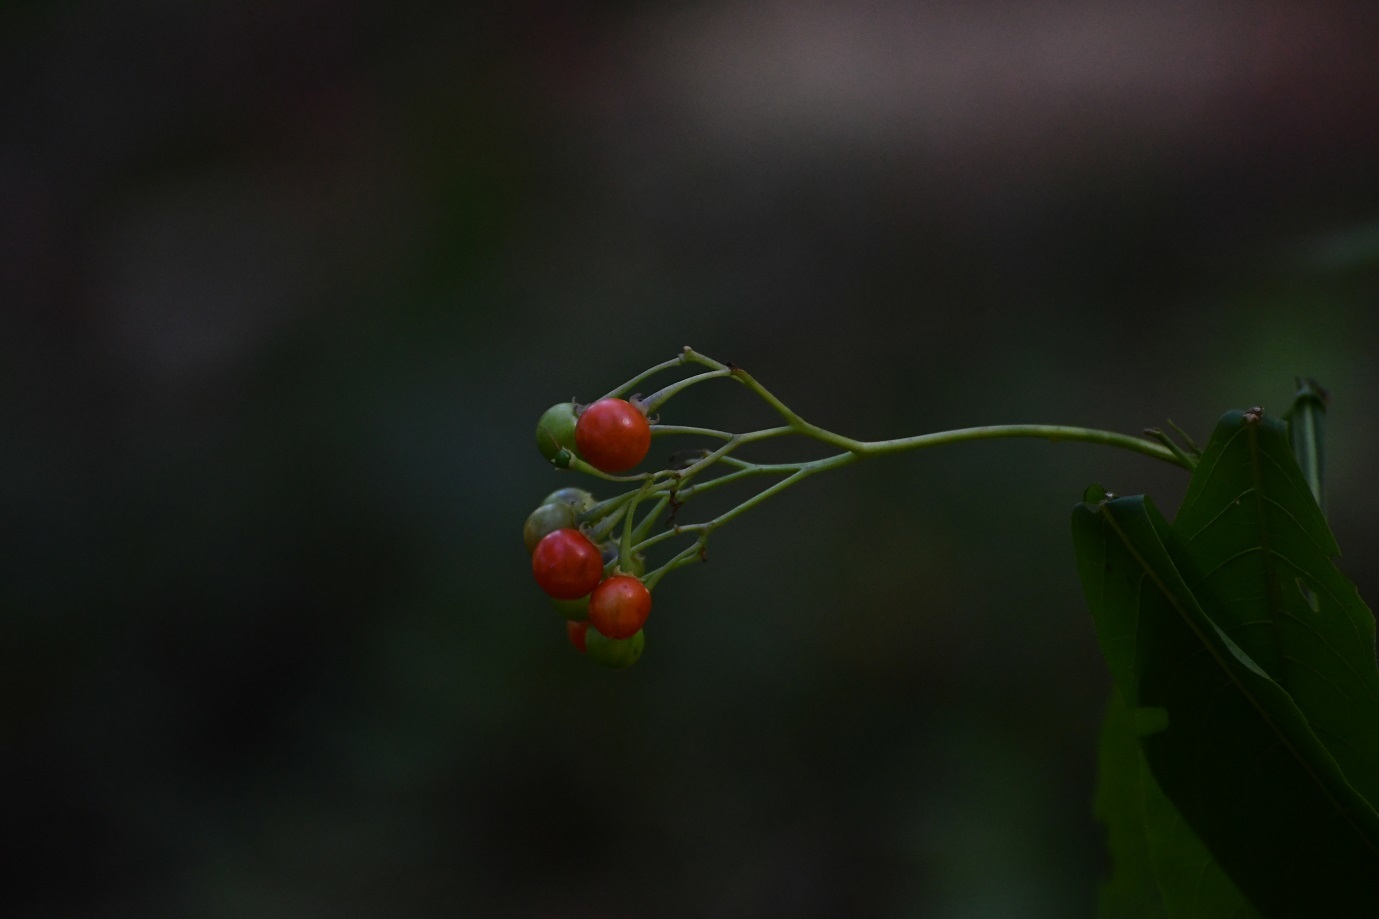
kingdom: Plantae
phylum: Tracheophyta
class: Magnoliopsida
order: Solanales
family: Solanaceae
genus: Solanum
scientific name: Solanum pubigerum
